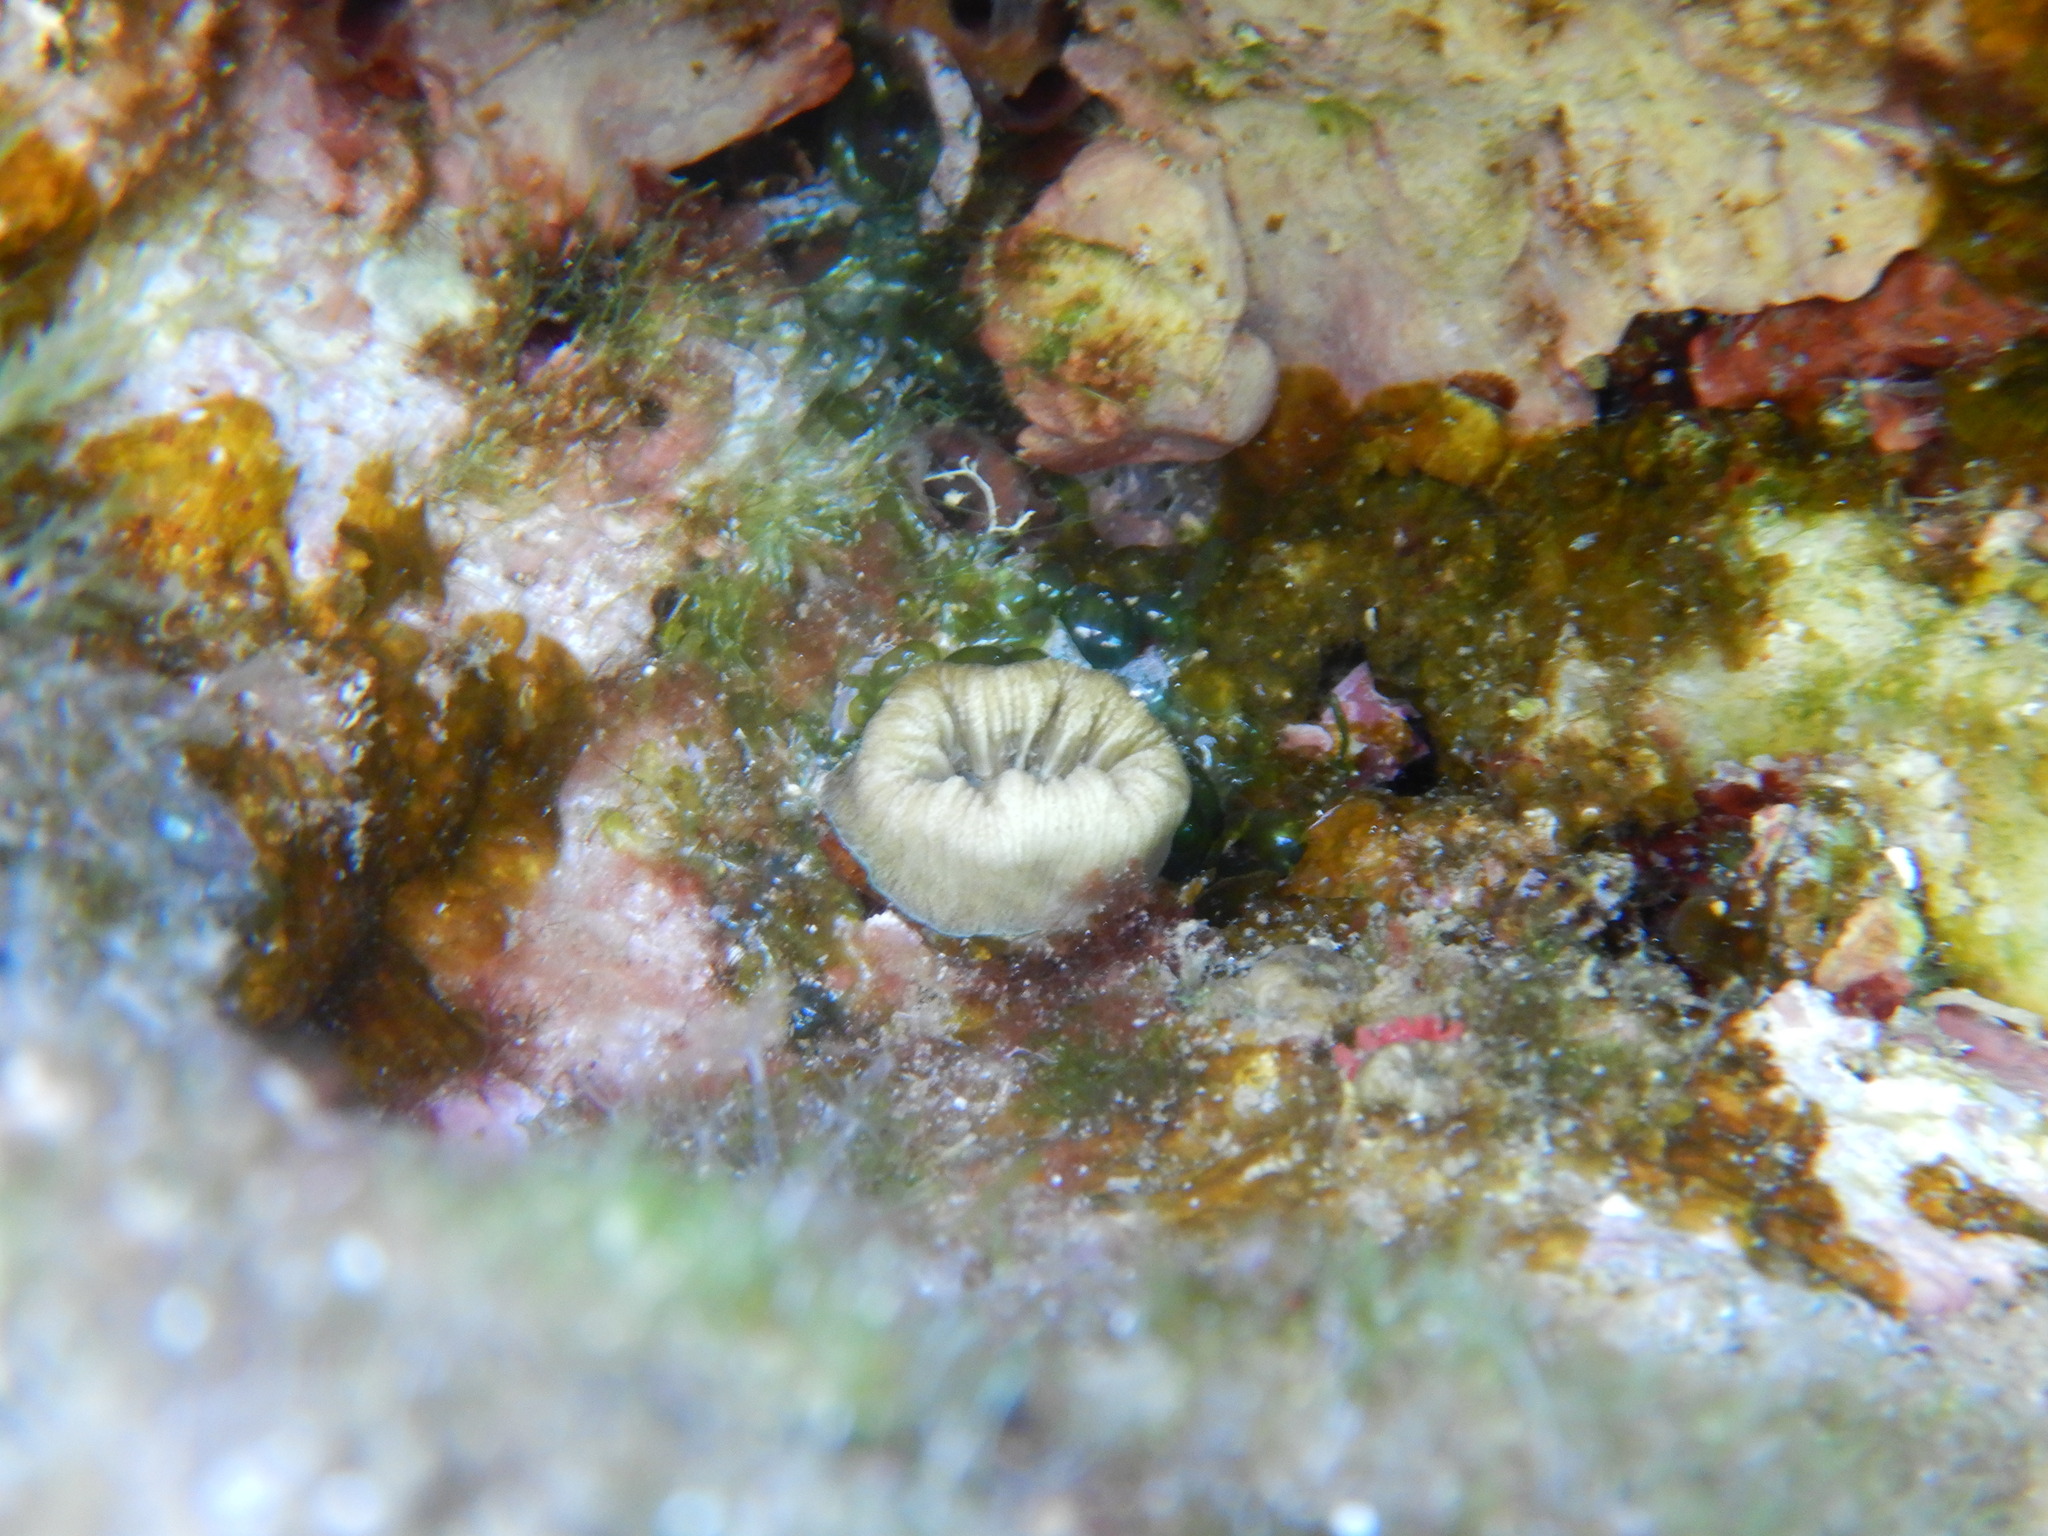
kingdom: Animalia
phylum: Cnidaria
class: Anthozoa
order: Scleractinia
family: Dendrophylliidae
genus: Balanophyllia
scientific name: Balanophyllia europaea
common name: Scarlet coral
